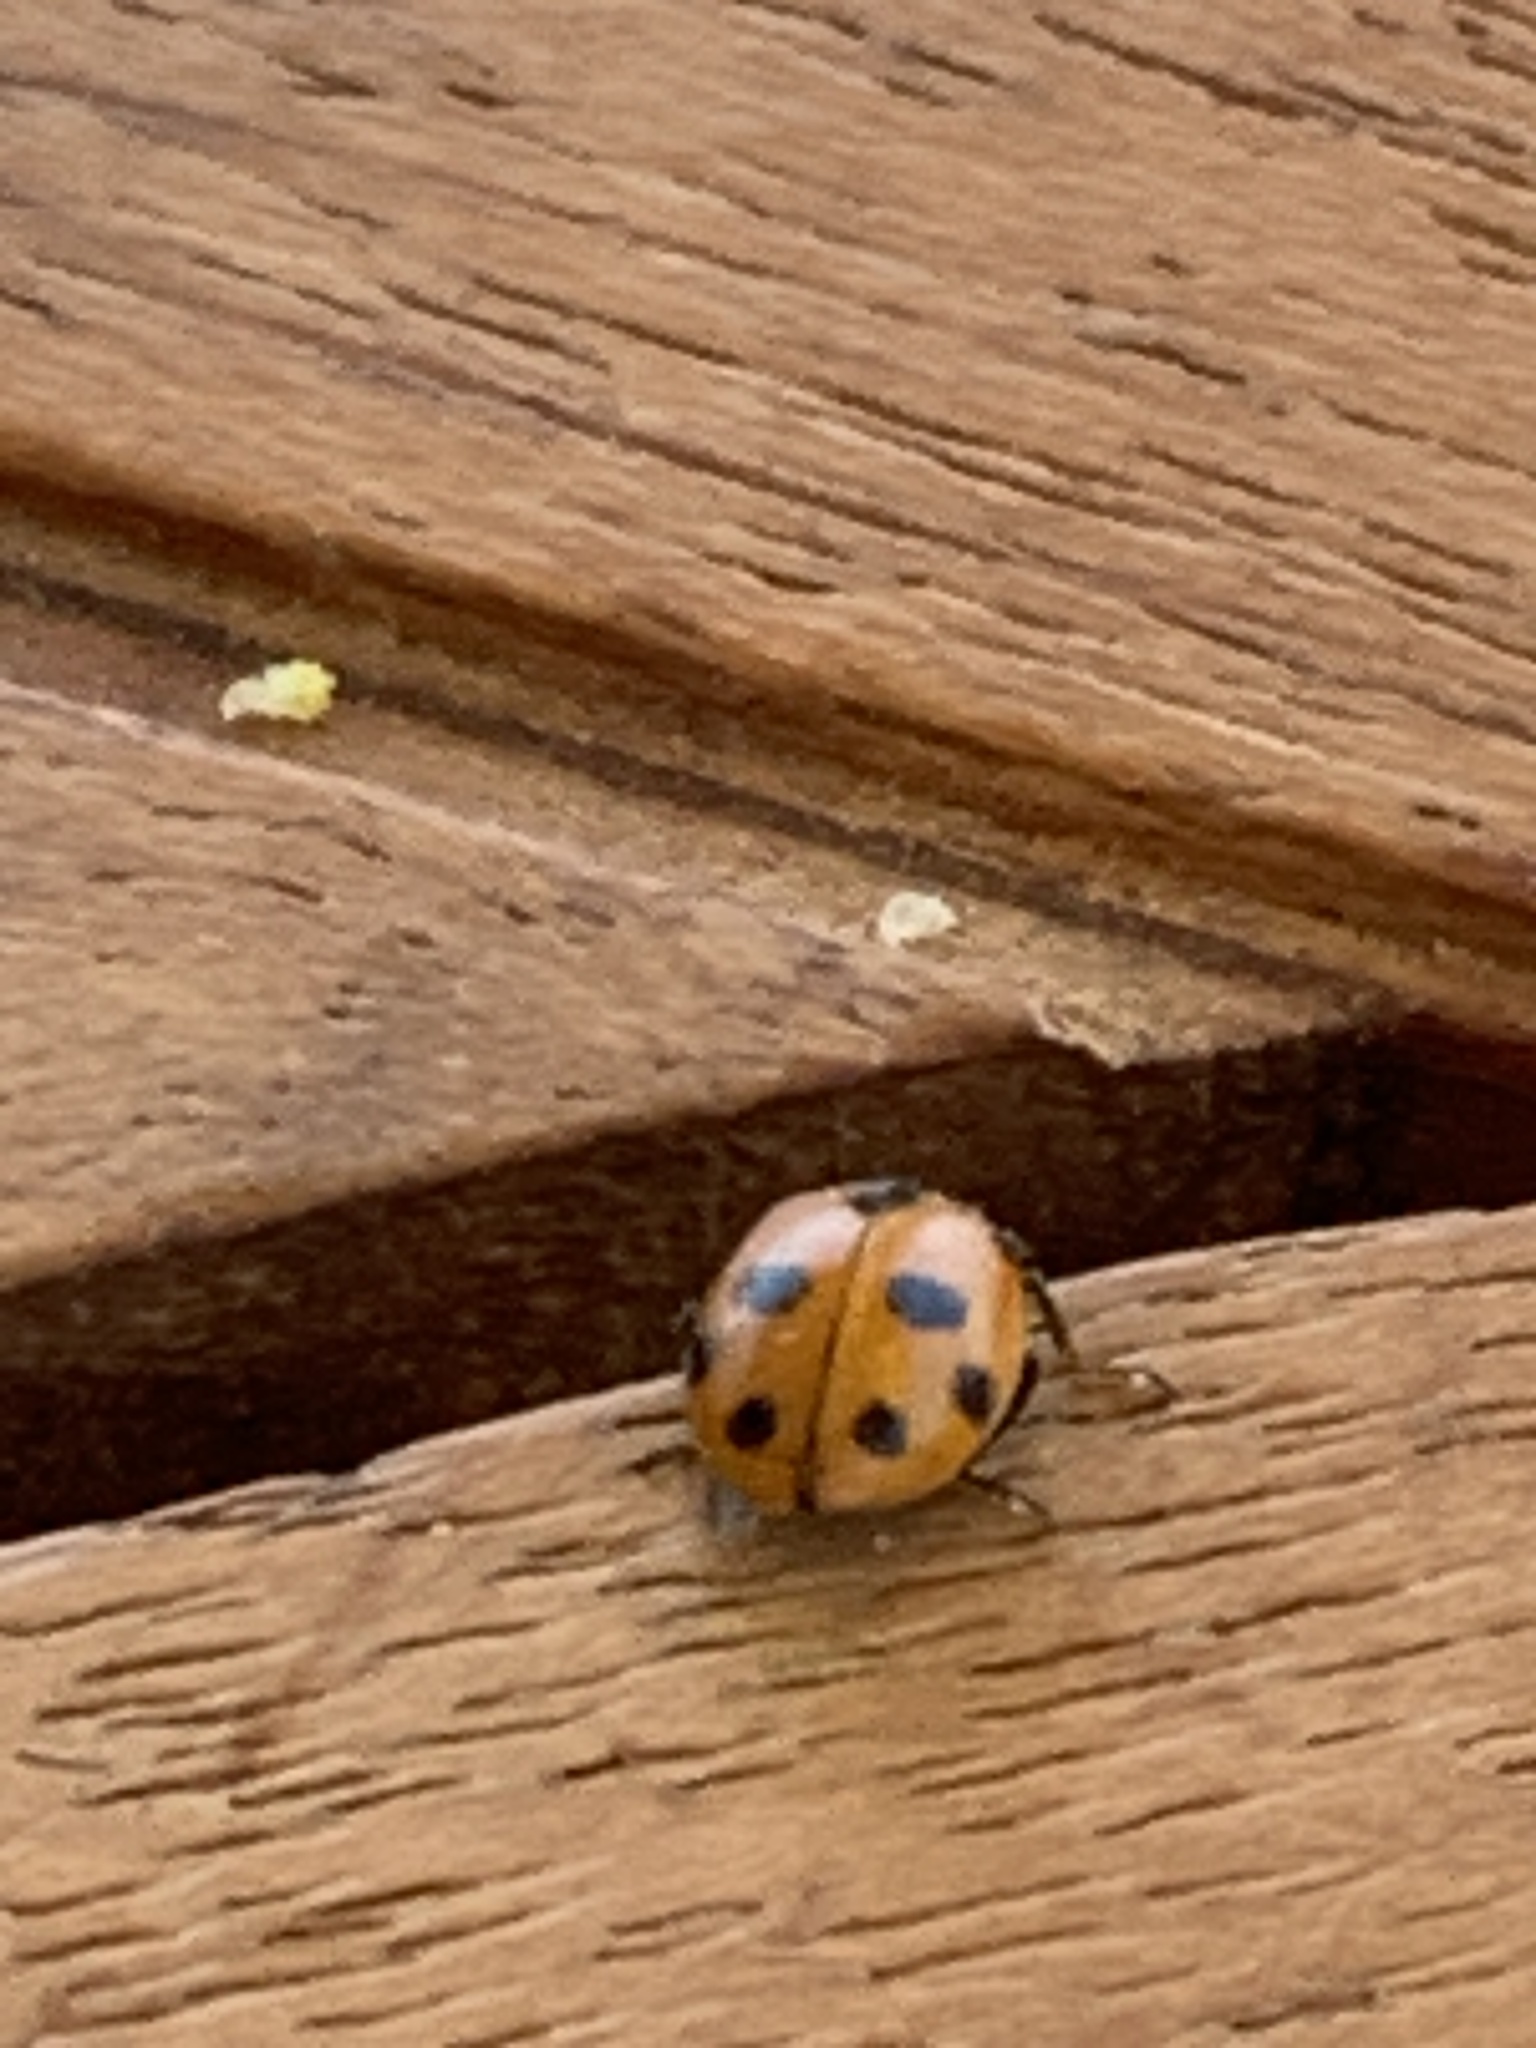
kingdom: Animalia
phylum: Arthropoda
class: Insecta
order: Coleoptera
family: Coccinellidae
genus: Hippodamia
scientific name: Hippodamia variegata
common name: Ladybird beetle
